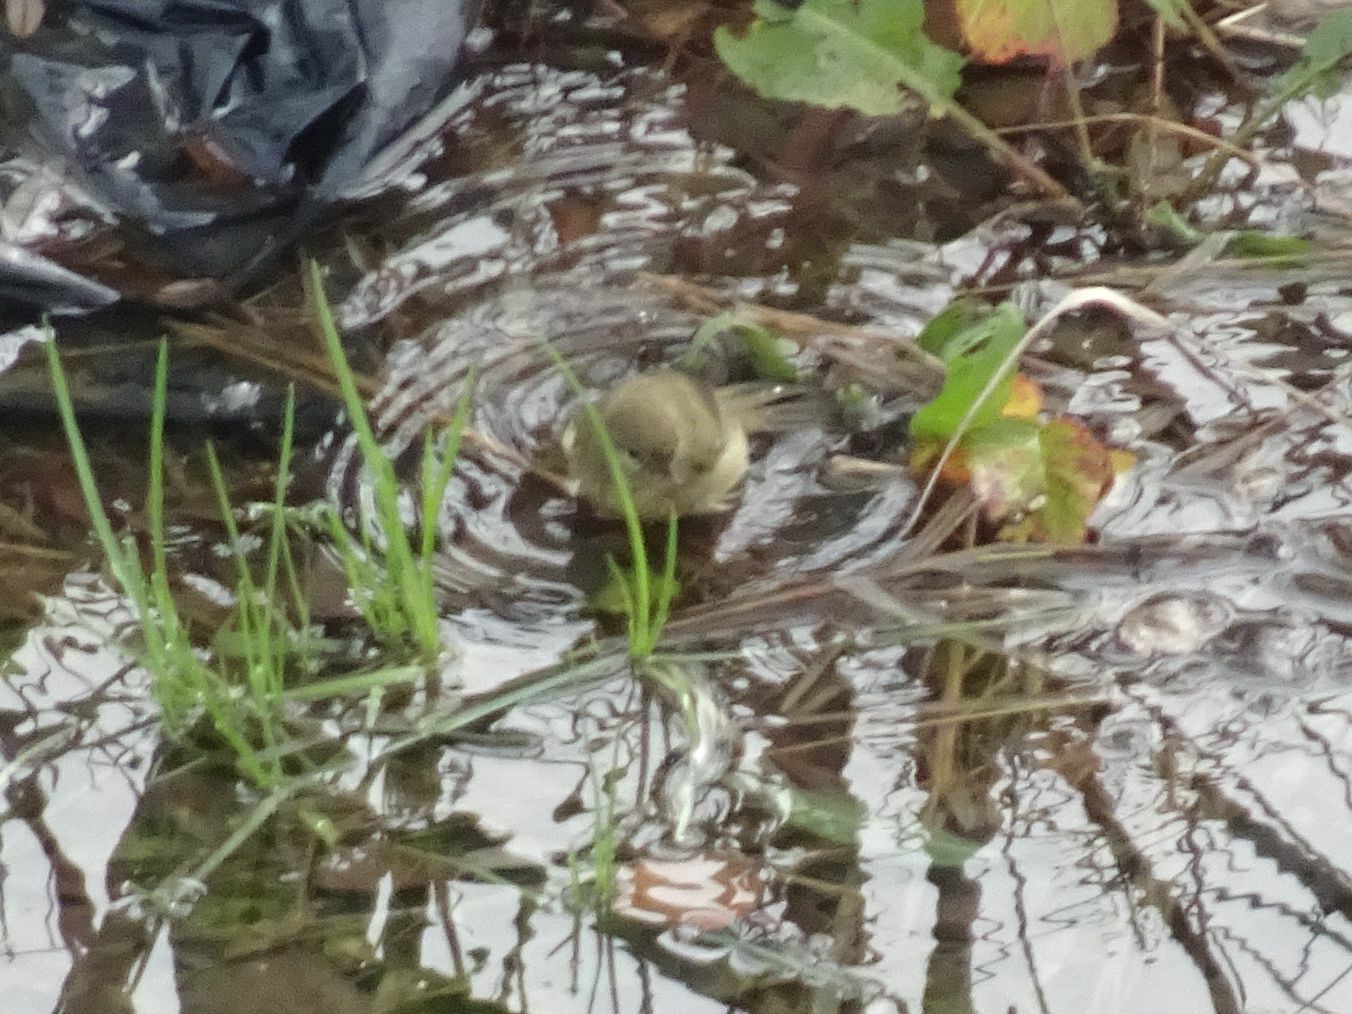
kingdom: Animalia
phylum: Chordata
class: Aves
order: Passeriformes
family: Phylloscopidae
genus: Phylloscopus
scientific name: Phylloscopus collybita
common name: Common chiffchaff
